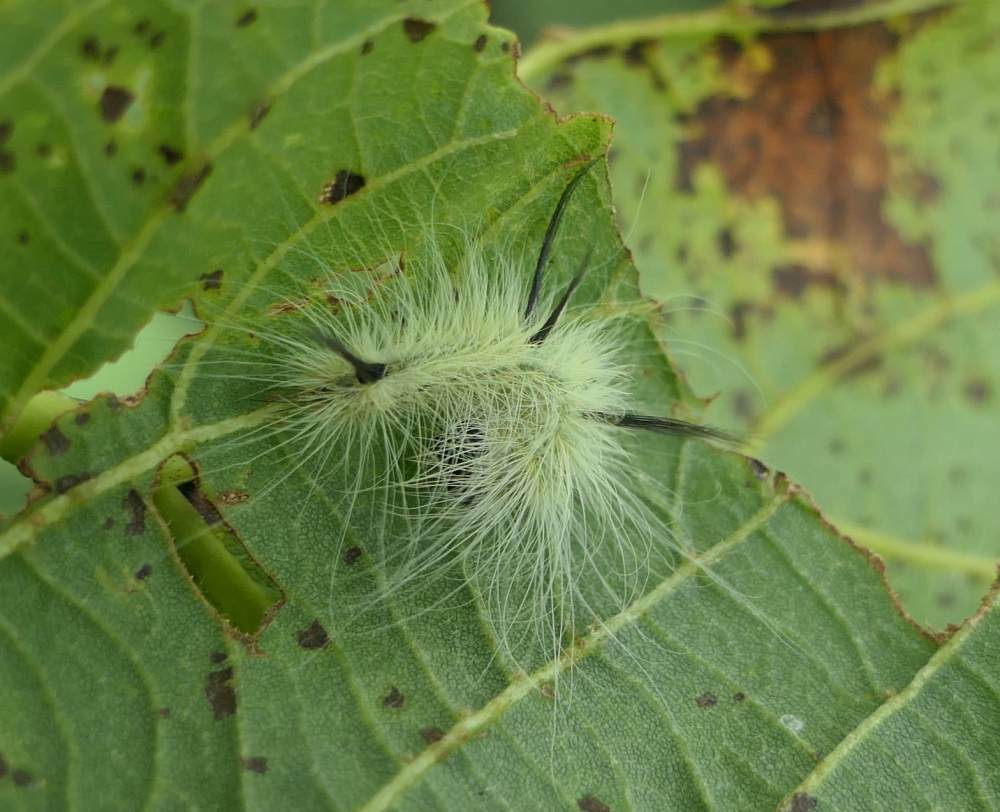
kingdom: Animalia
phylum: Arthropoda
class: Insecta
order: Lepidoptera
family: Noctuidae
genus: Acronicta
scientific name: Acronicta americana
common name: American dagger
